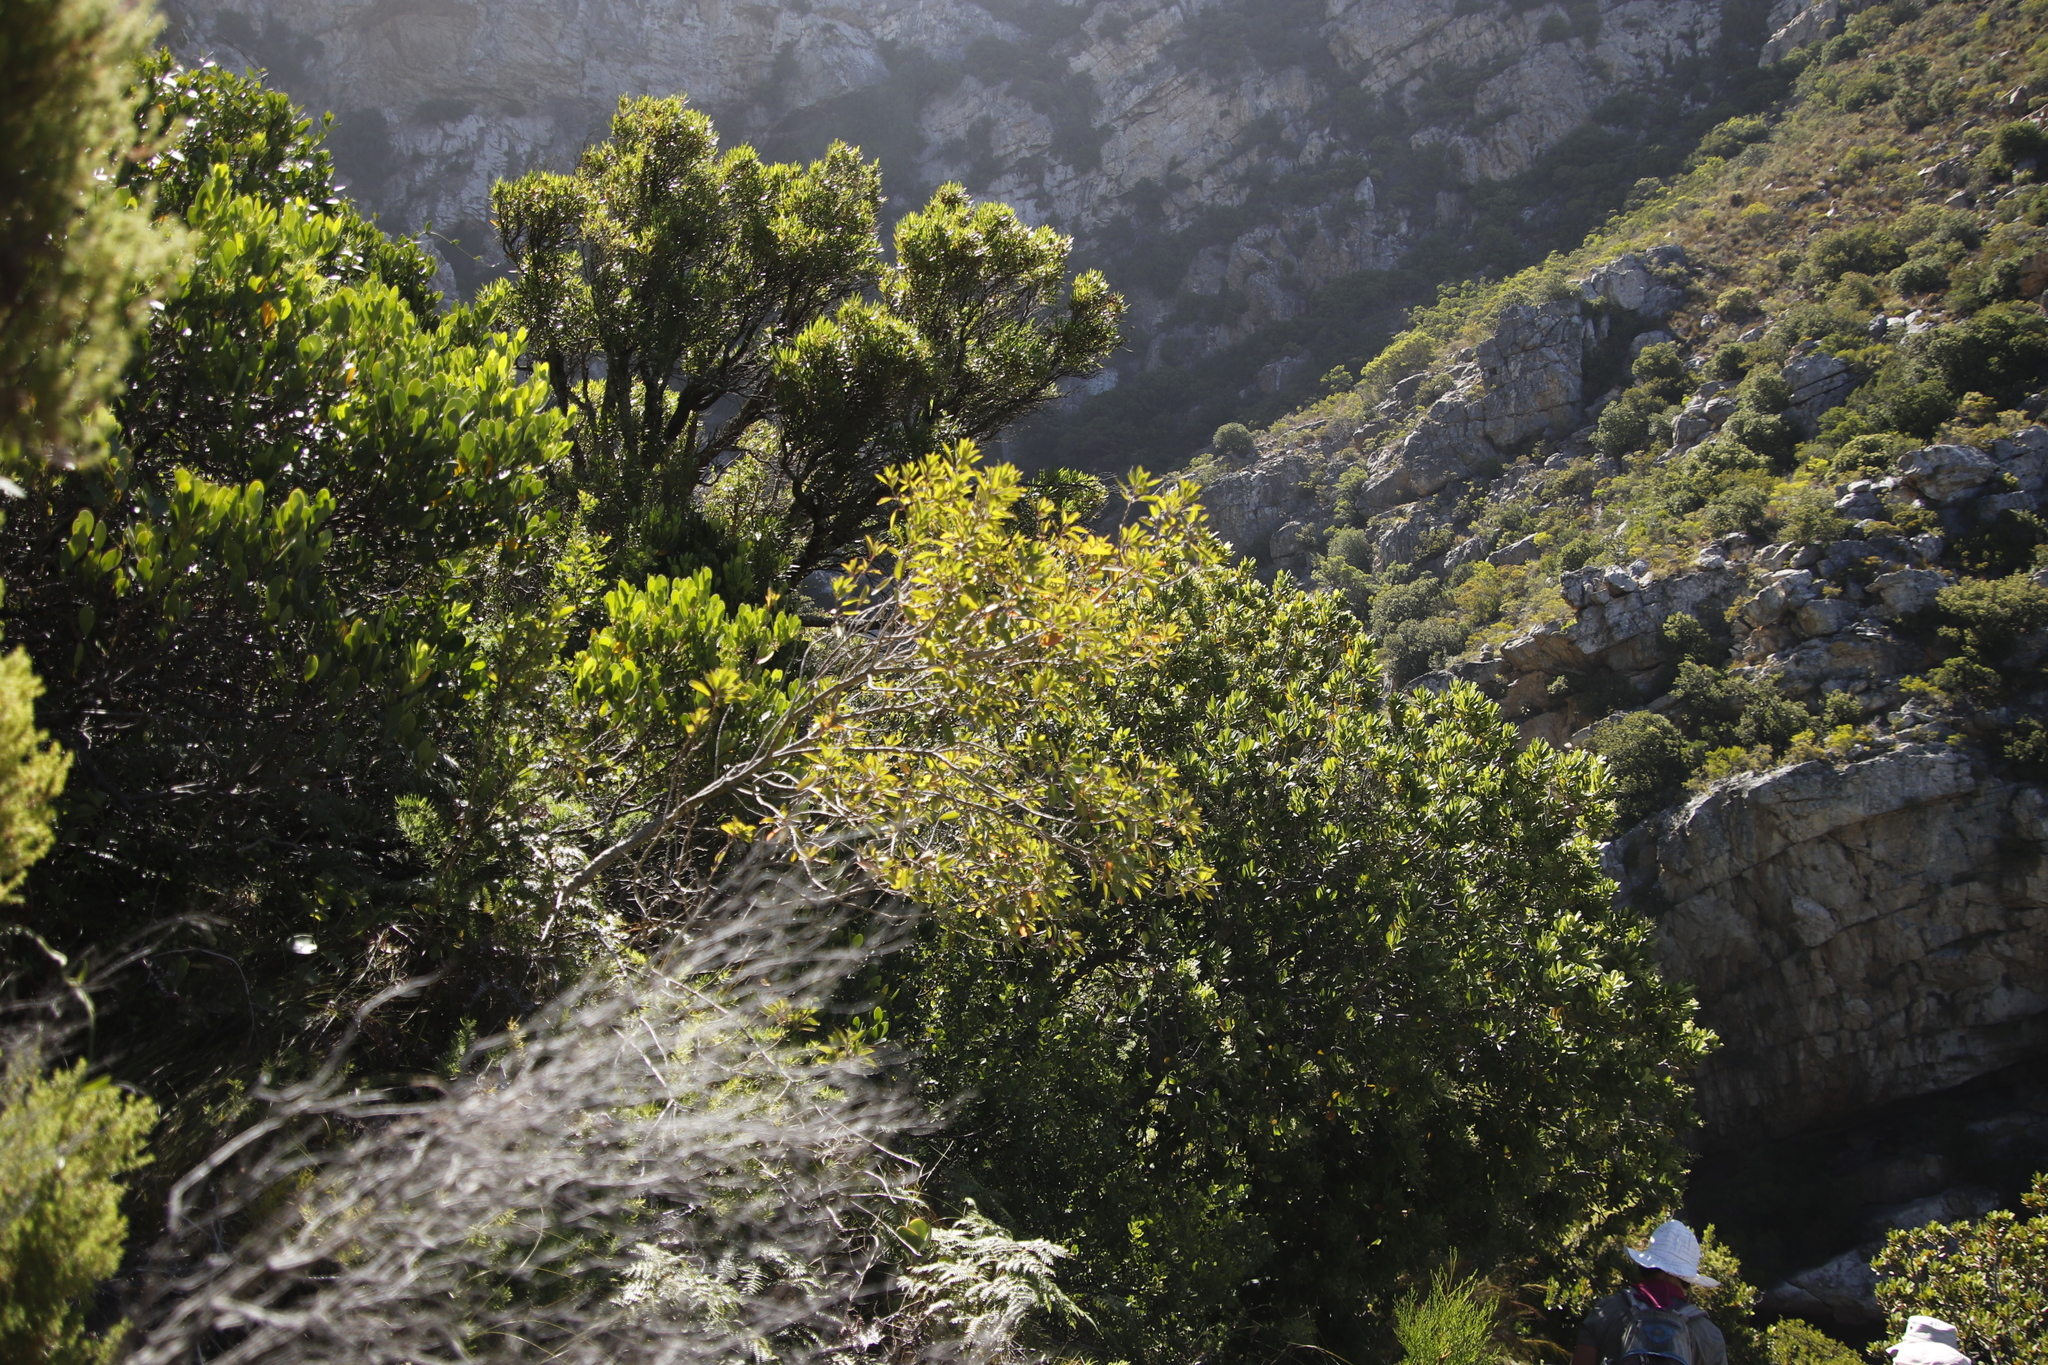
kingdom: Plantae
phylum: Tracheophyta
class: Magnoliopsida
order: Myrtales
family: Myrtaceae
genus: Callistemon
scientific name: Callistemon lanceolatus
